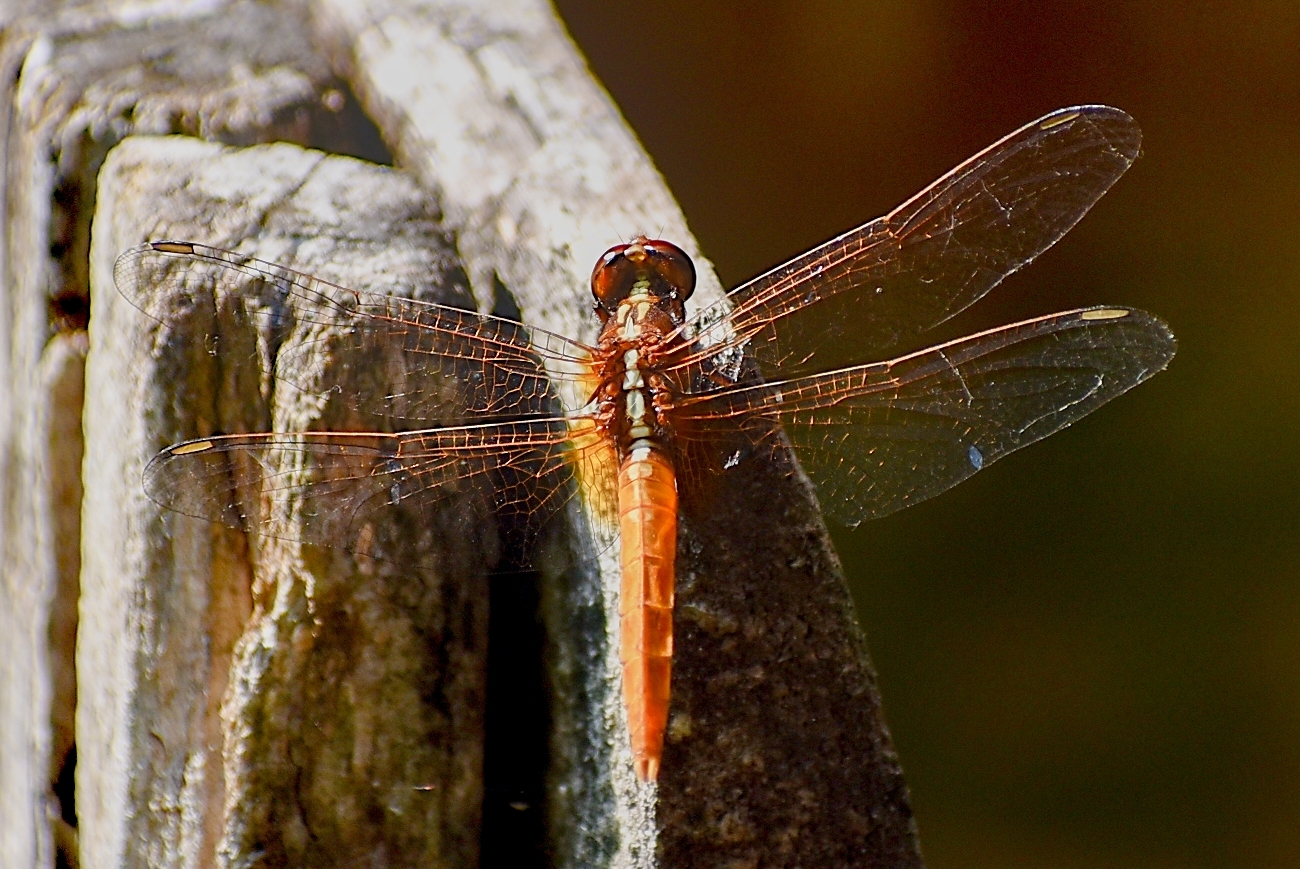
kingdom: Animalia
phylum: Arthropoda
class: Insecta
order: Odonata
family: Libellulidae
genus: Rhodothemis
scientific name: Rhodothemis rufa
